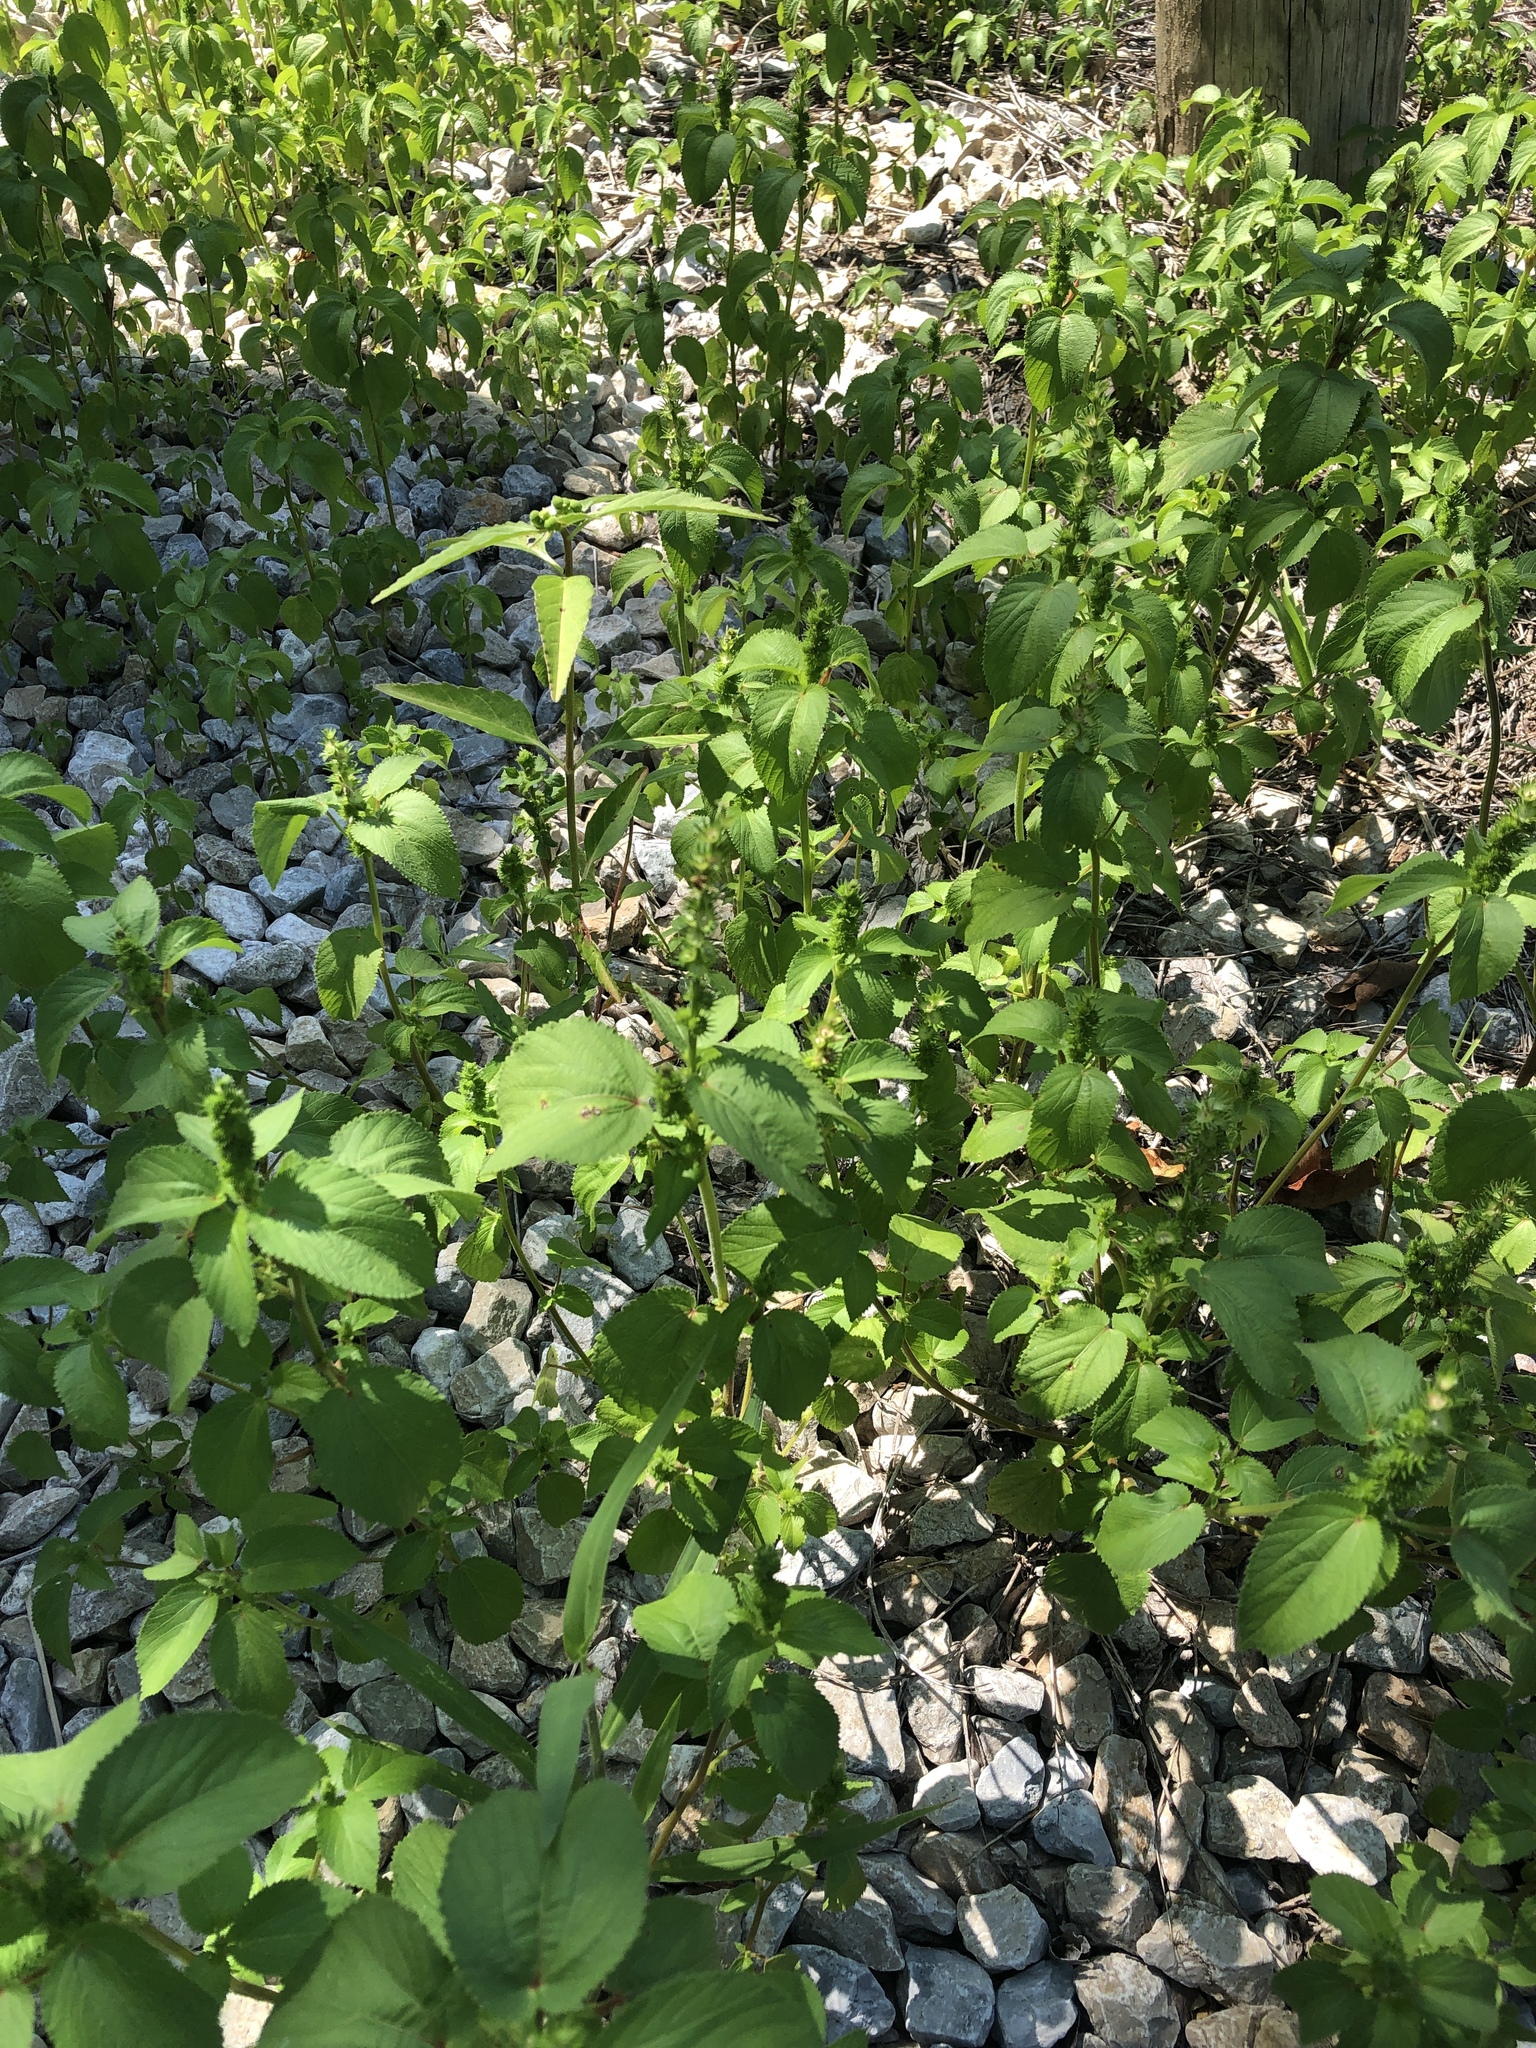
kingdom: Plantae
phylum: Tracheophyta
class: Magnoliopsida
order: Malpighiales
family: Euphorbiaceae
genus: Acalypha
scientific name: Acalypha ostryifolia
